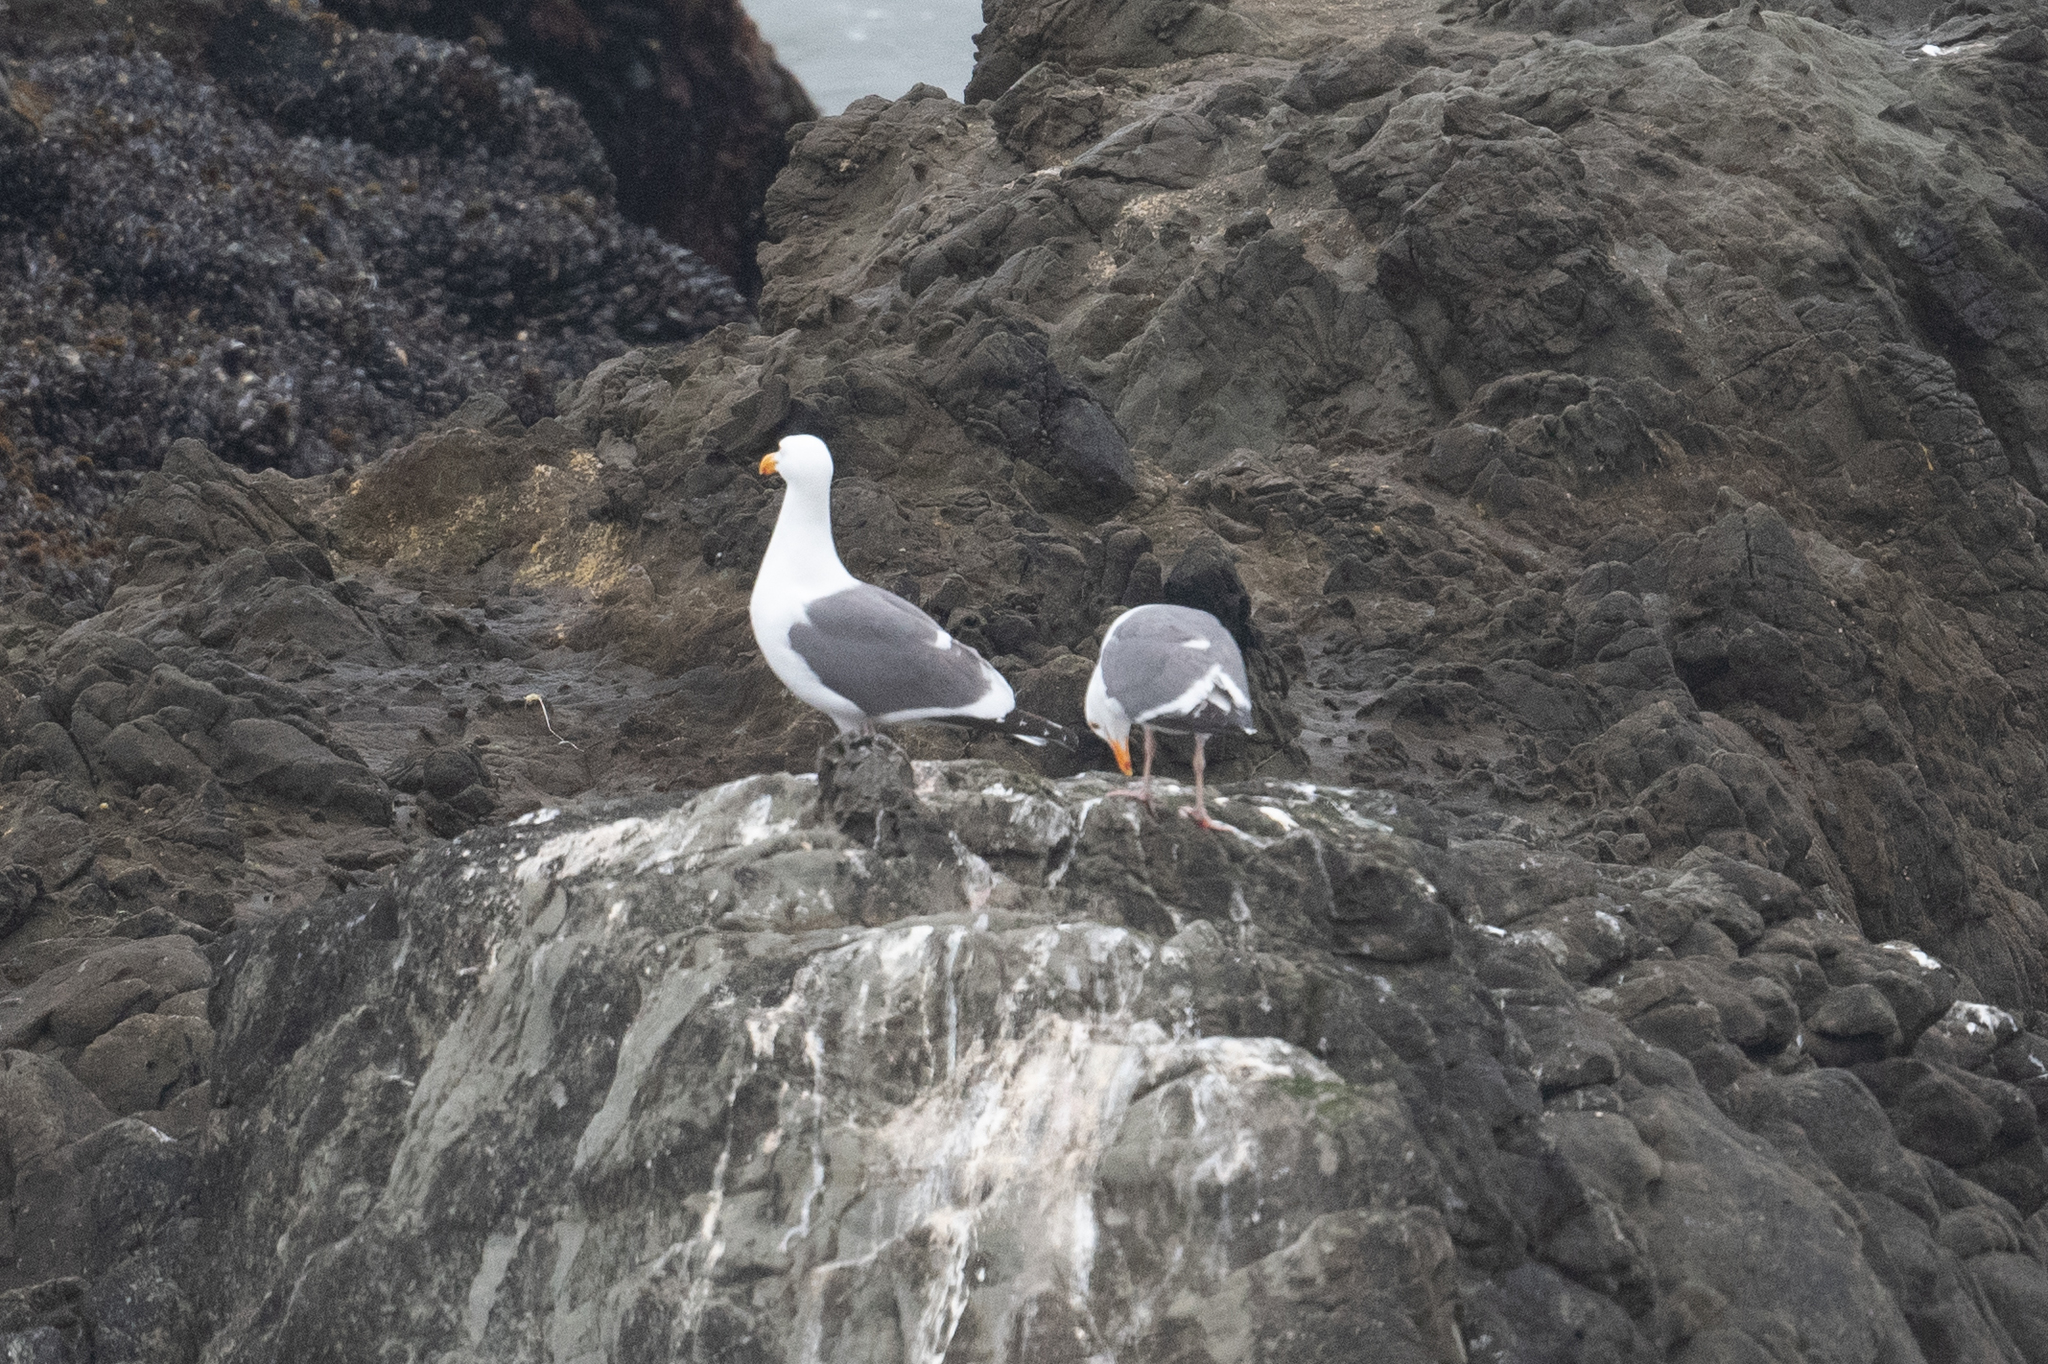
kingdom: Animalia
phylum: Chordata
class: Aves
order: Charadriiformes
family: Laridae
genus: Larus
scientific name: Larus occidentalis
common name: Western gull
